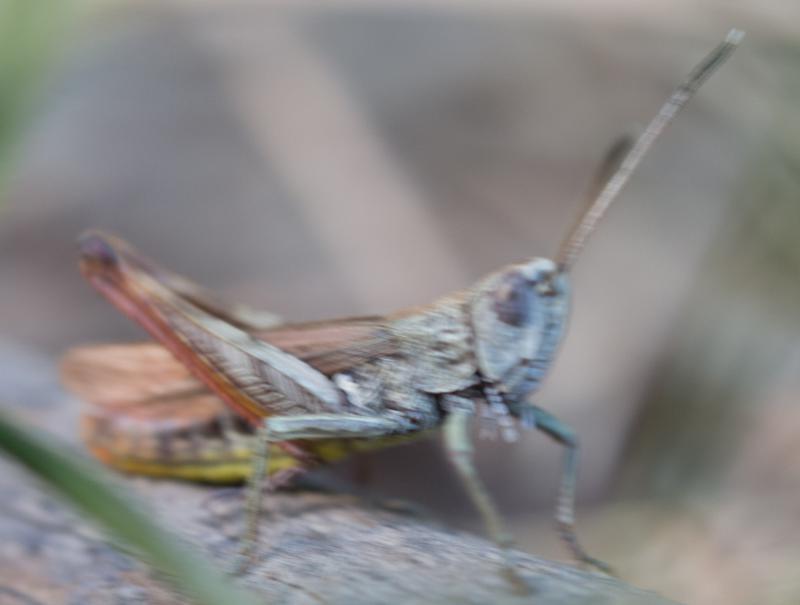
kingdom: Animalia
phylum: Arthropoda
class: Insecta
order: Orthoptera
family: Acrididae
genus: Gomphocerippus
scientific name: Gomphocerippus rufus
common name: Rufous grasshopper
